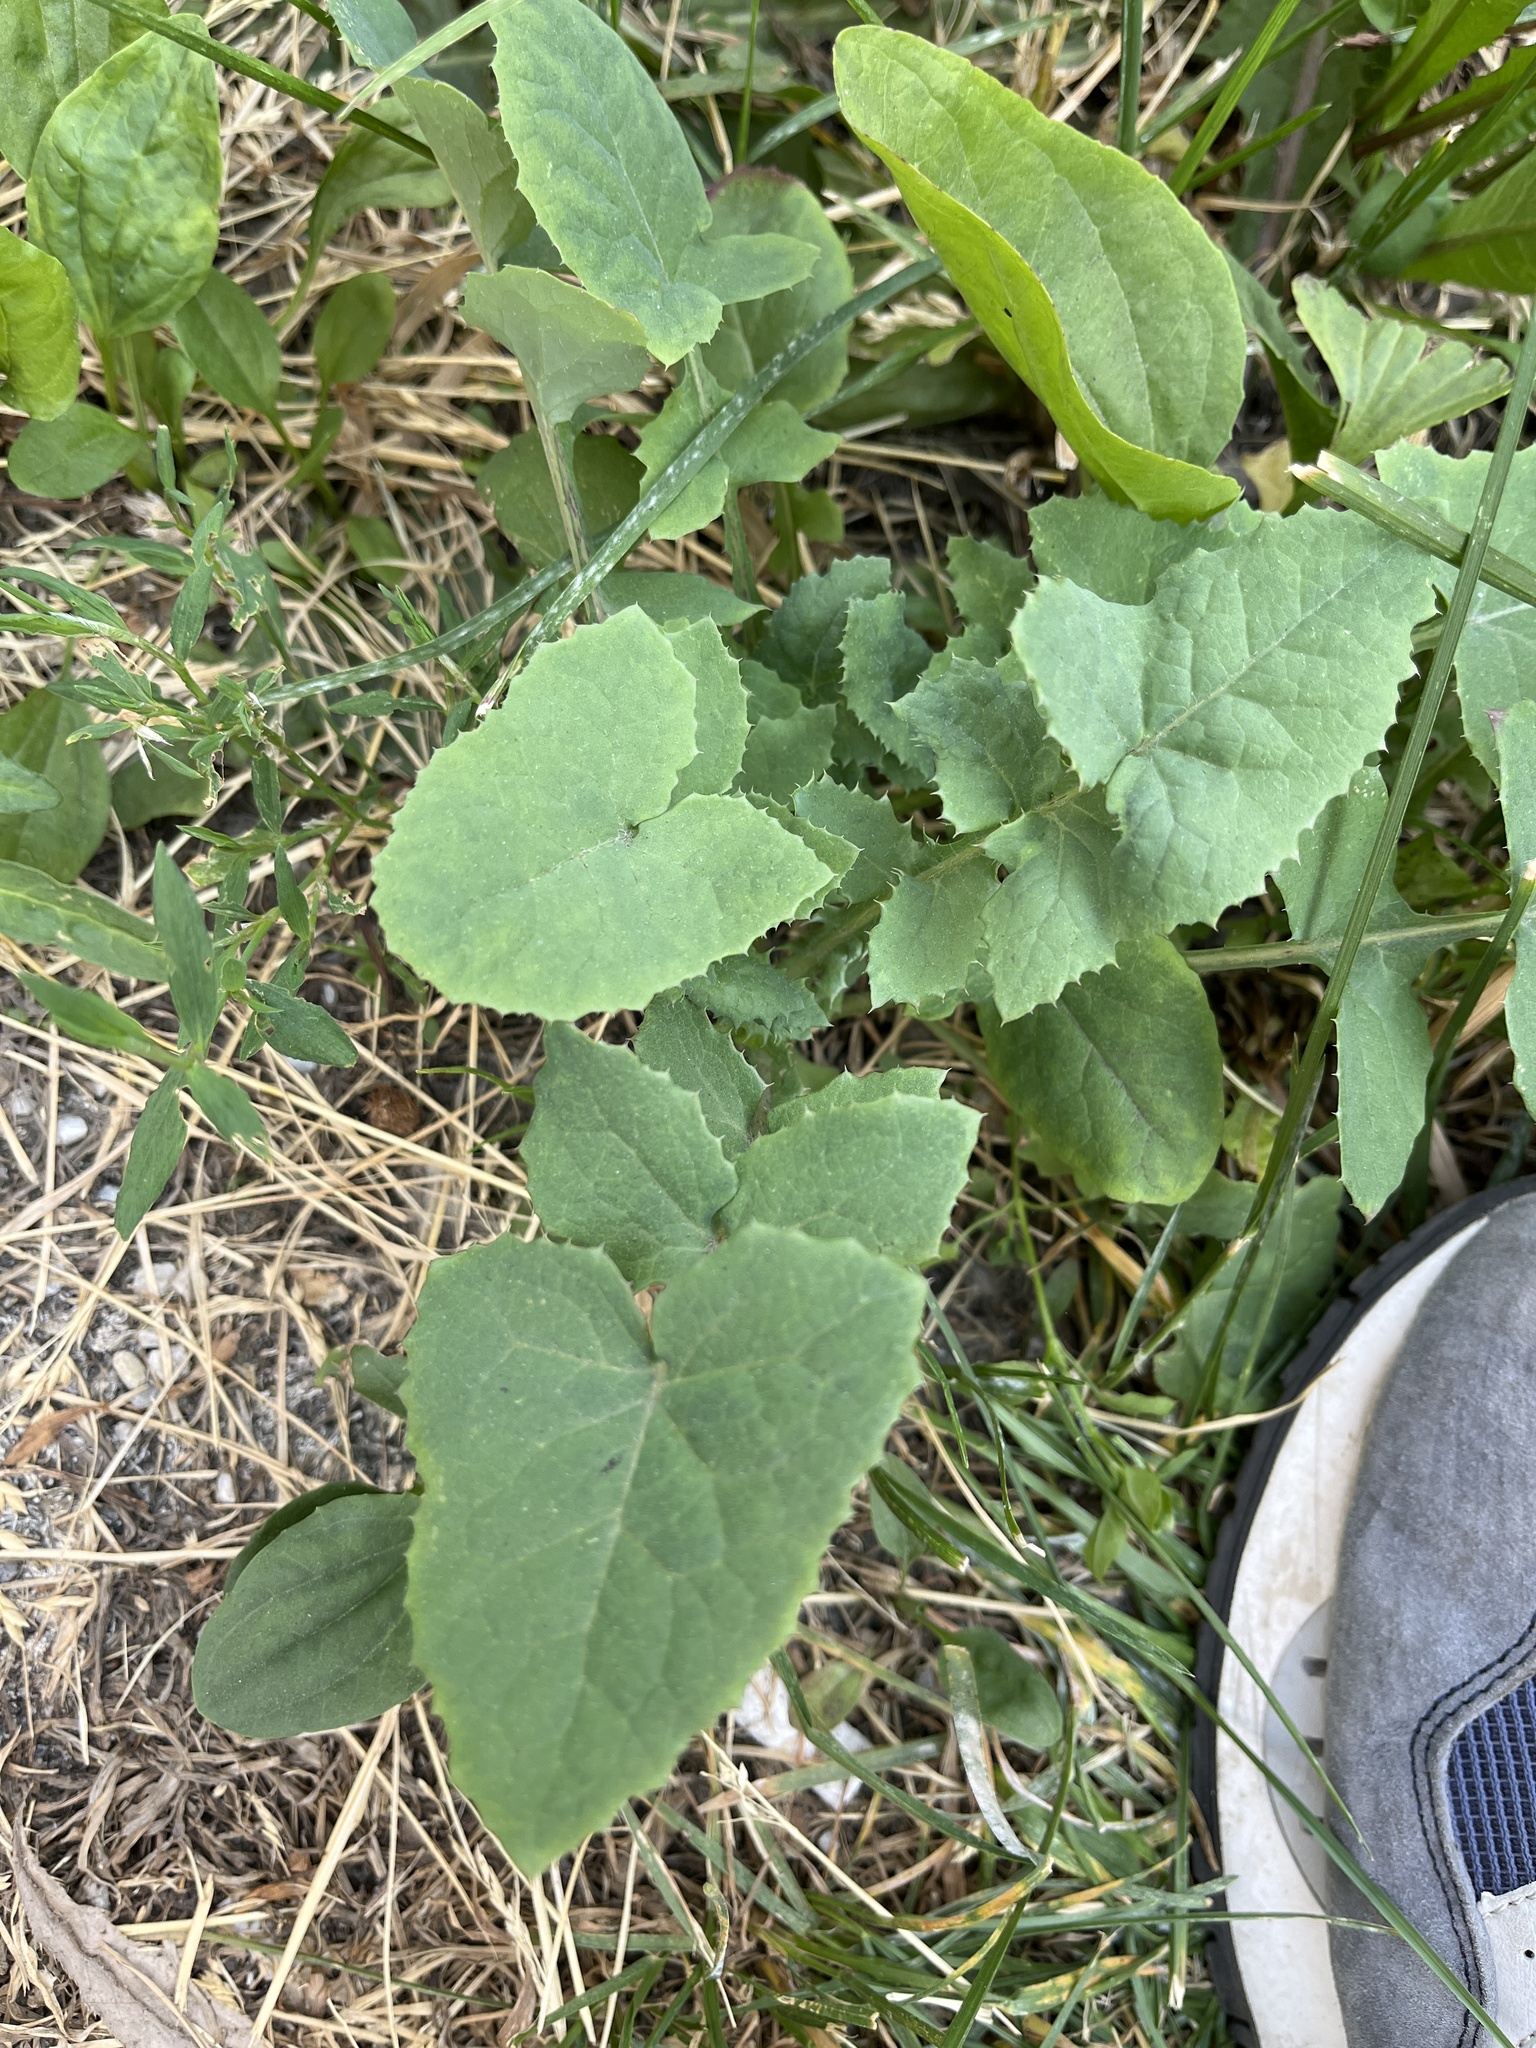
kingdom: Plantae
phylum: Tracheophyta
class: Magnoliopsida
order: Asterales
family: Asteraceae
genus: Sonchus
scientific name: Sonchus oleraceus
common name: Common sowthistle
